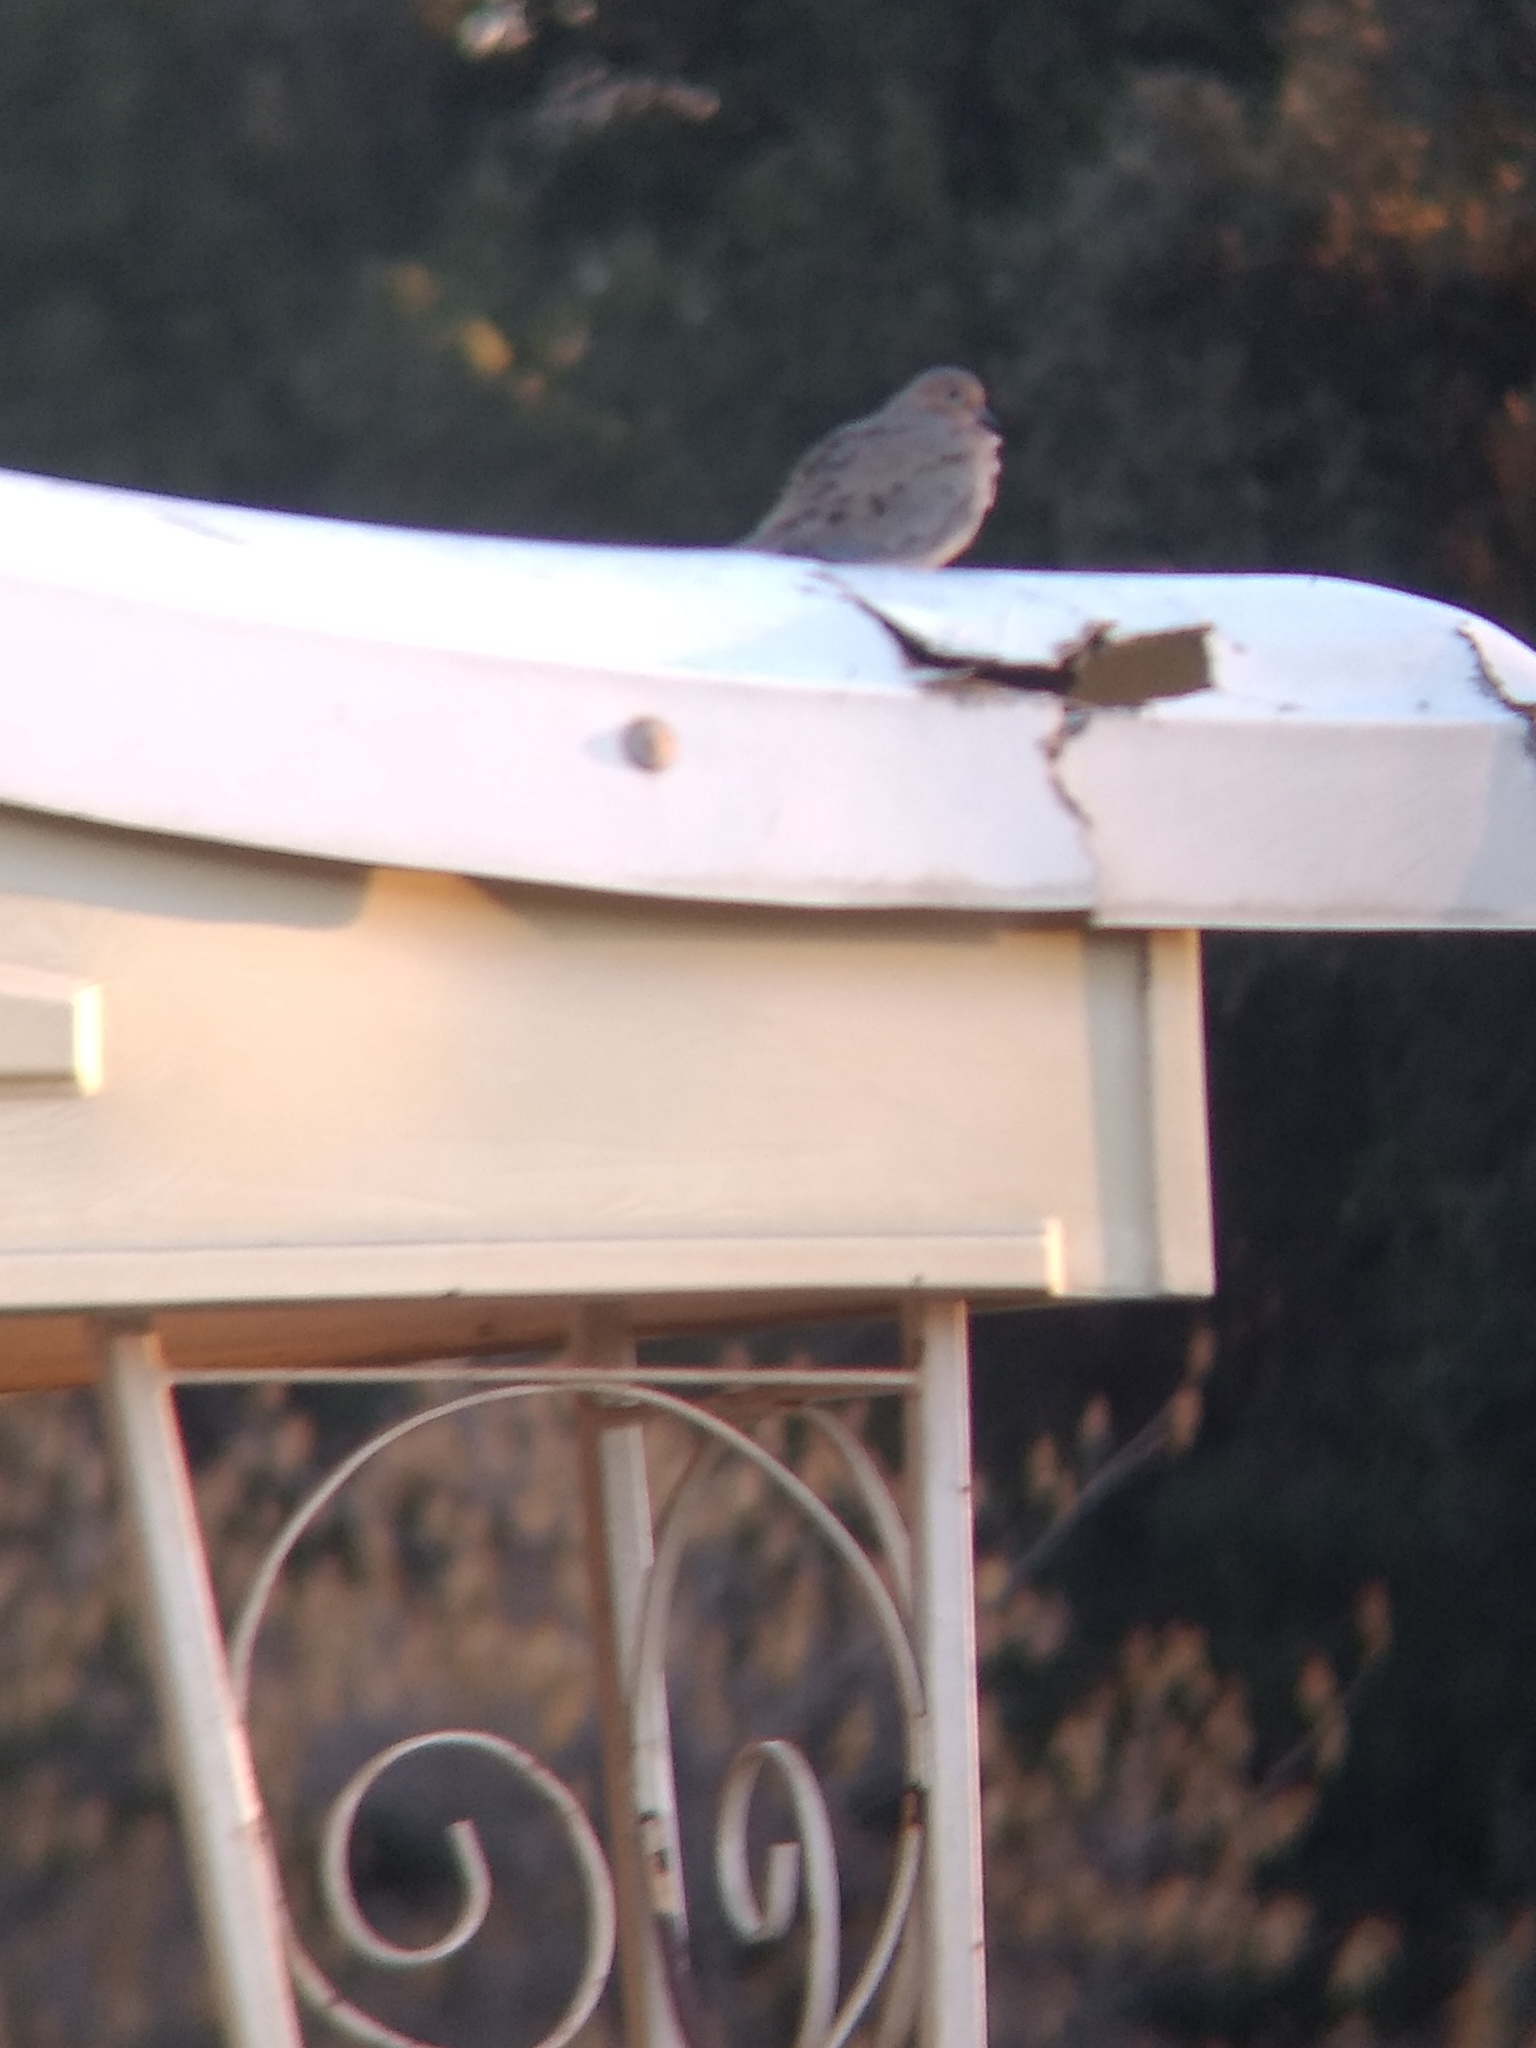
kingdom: Animalia
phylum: Chordata
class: Aves
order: Columbiformes
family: Columbidae
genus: Zenaida
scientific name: Zenaida macroura
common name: Mourning dove
